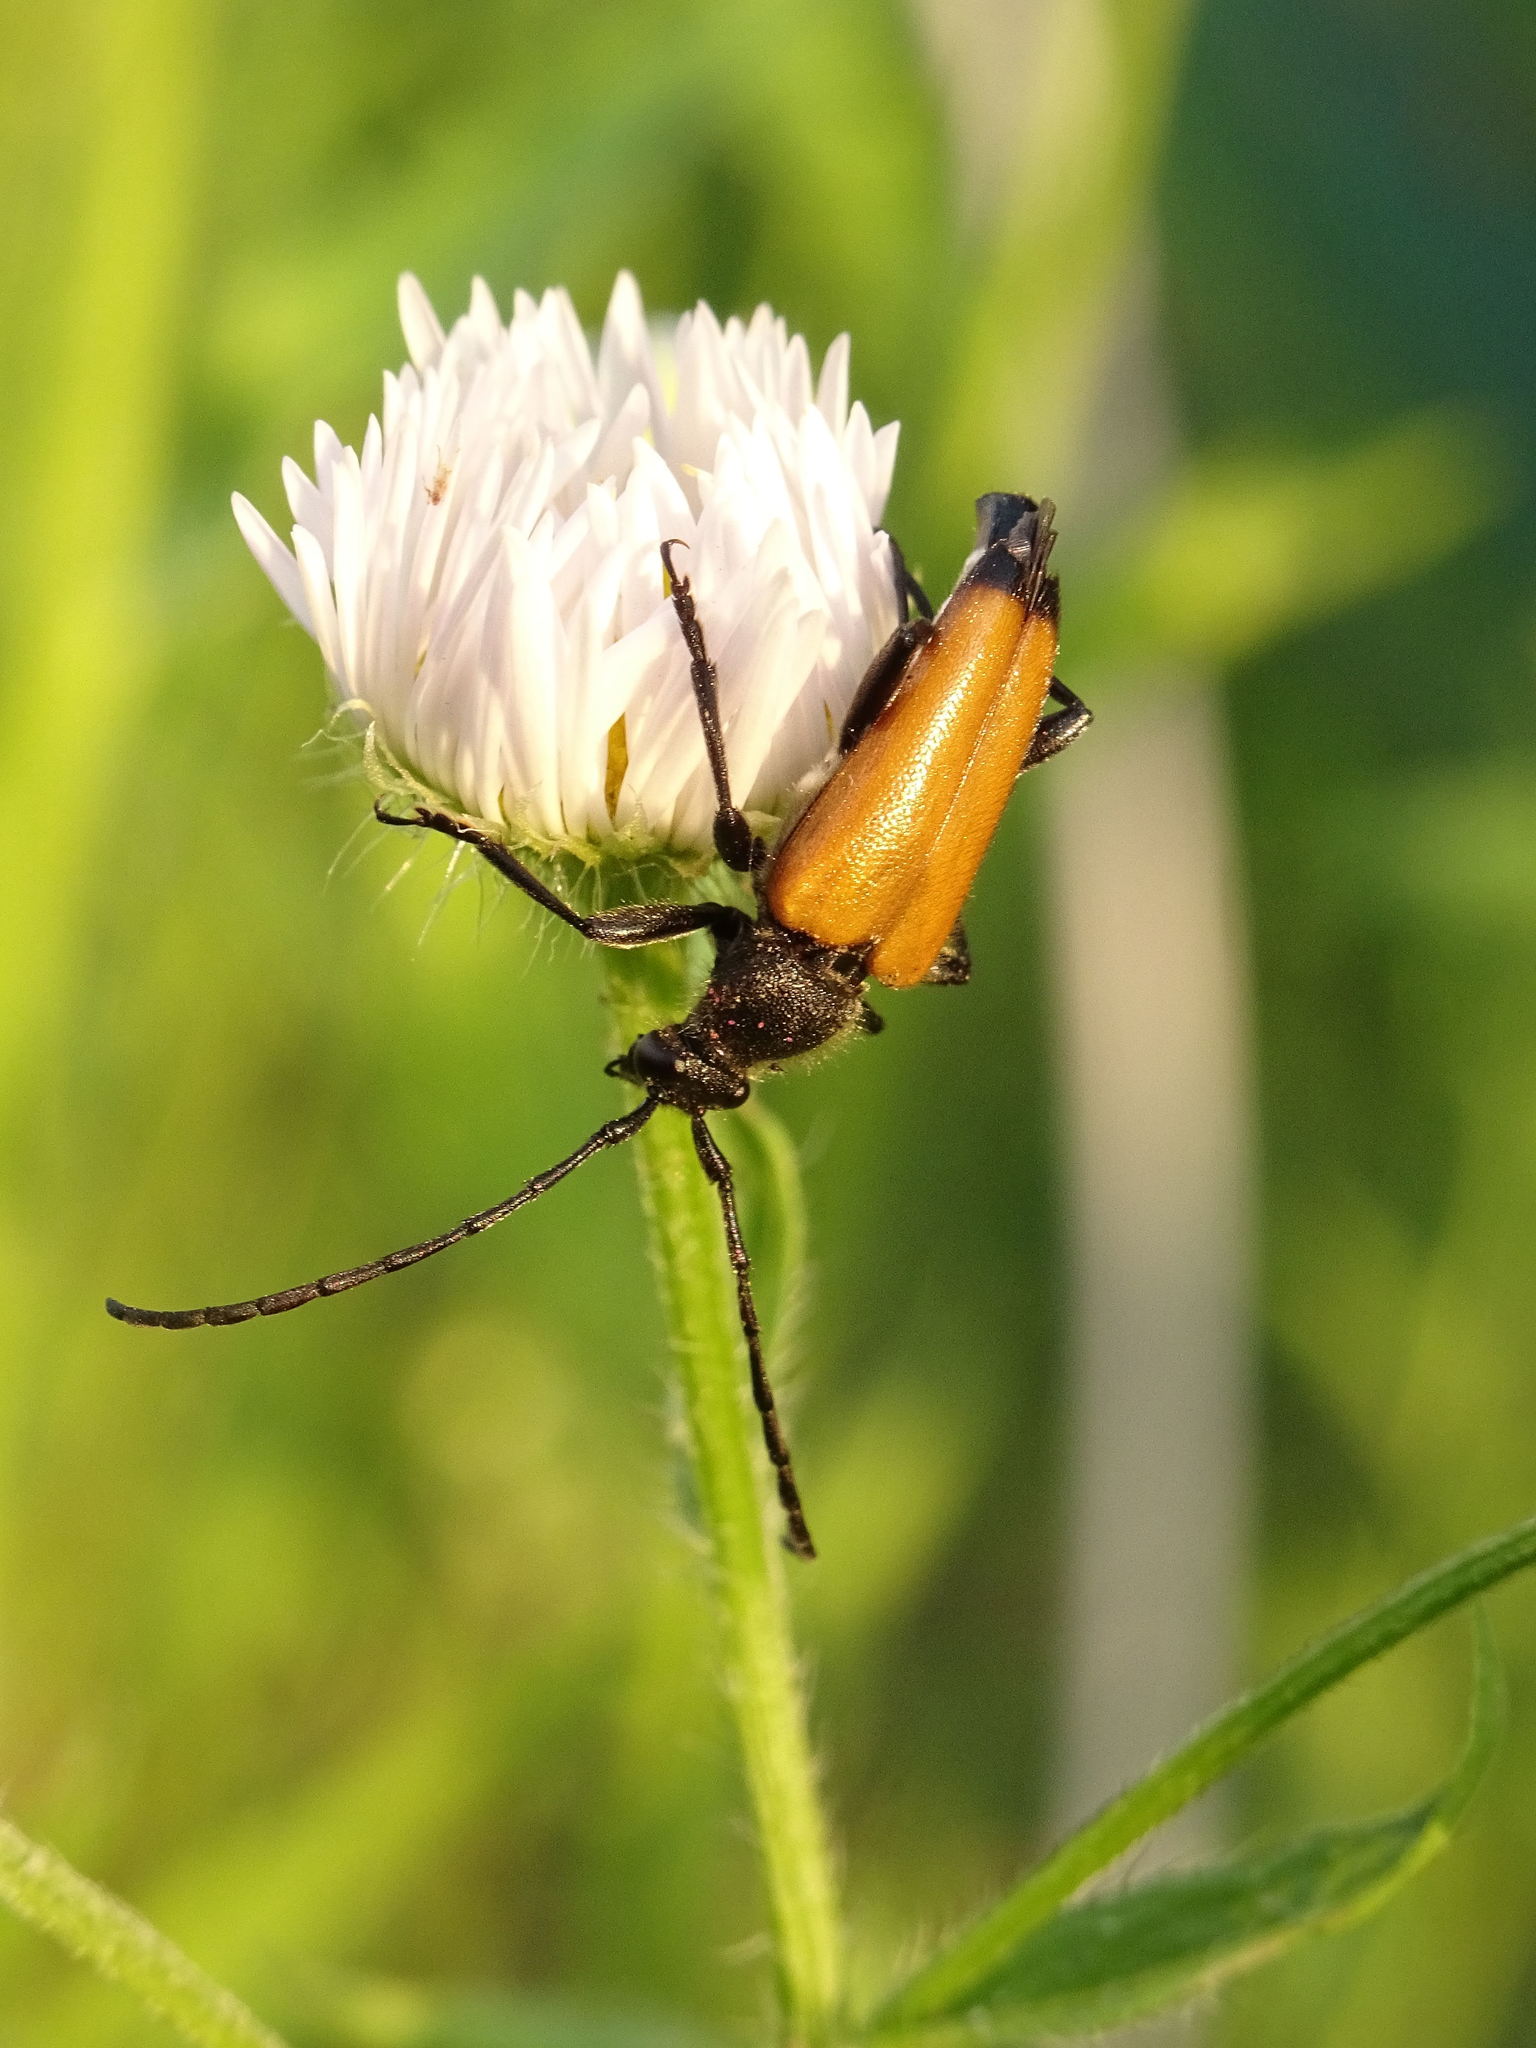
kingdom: Animalia
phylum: Arthropoda
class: Insecta
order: Coleoptera
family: Cerambycidae
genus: Paracorymbia
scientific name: Paracorymbia fulva
